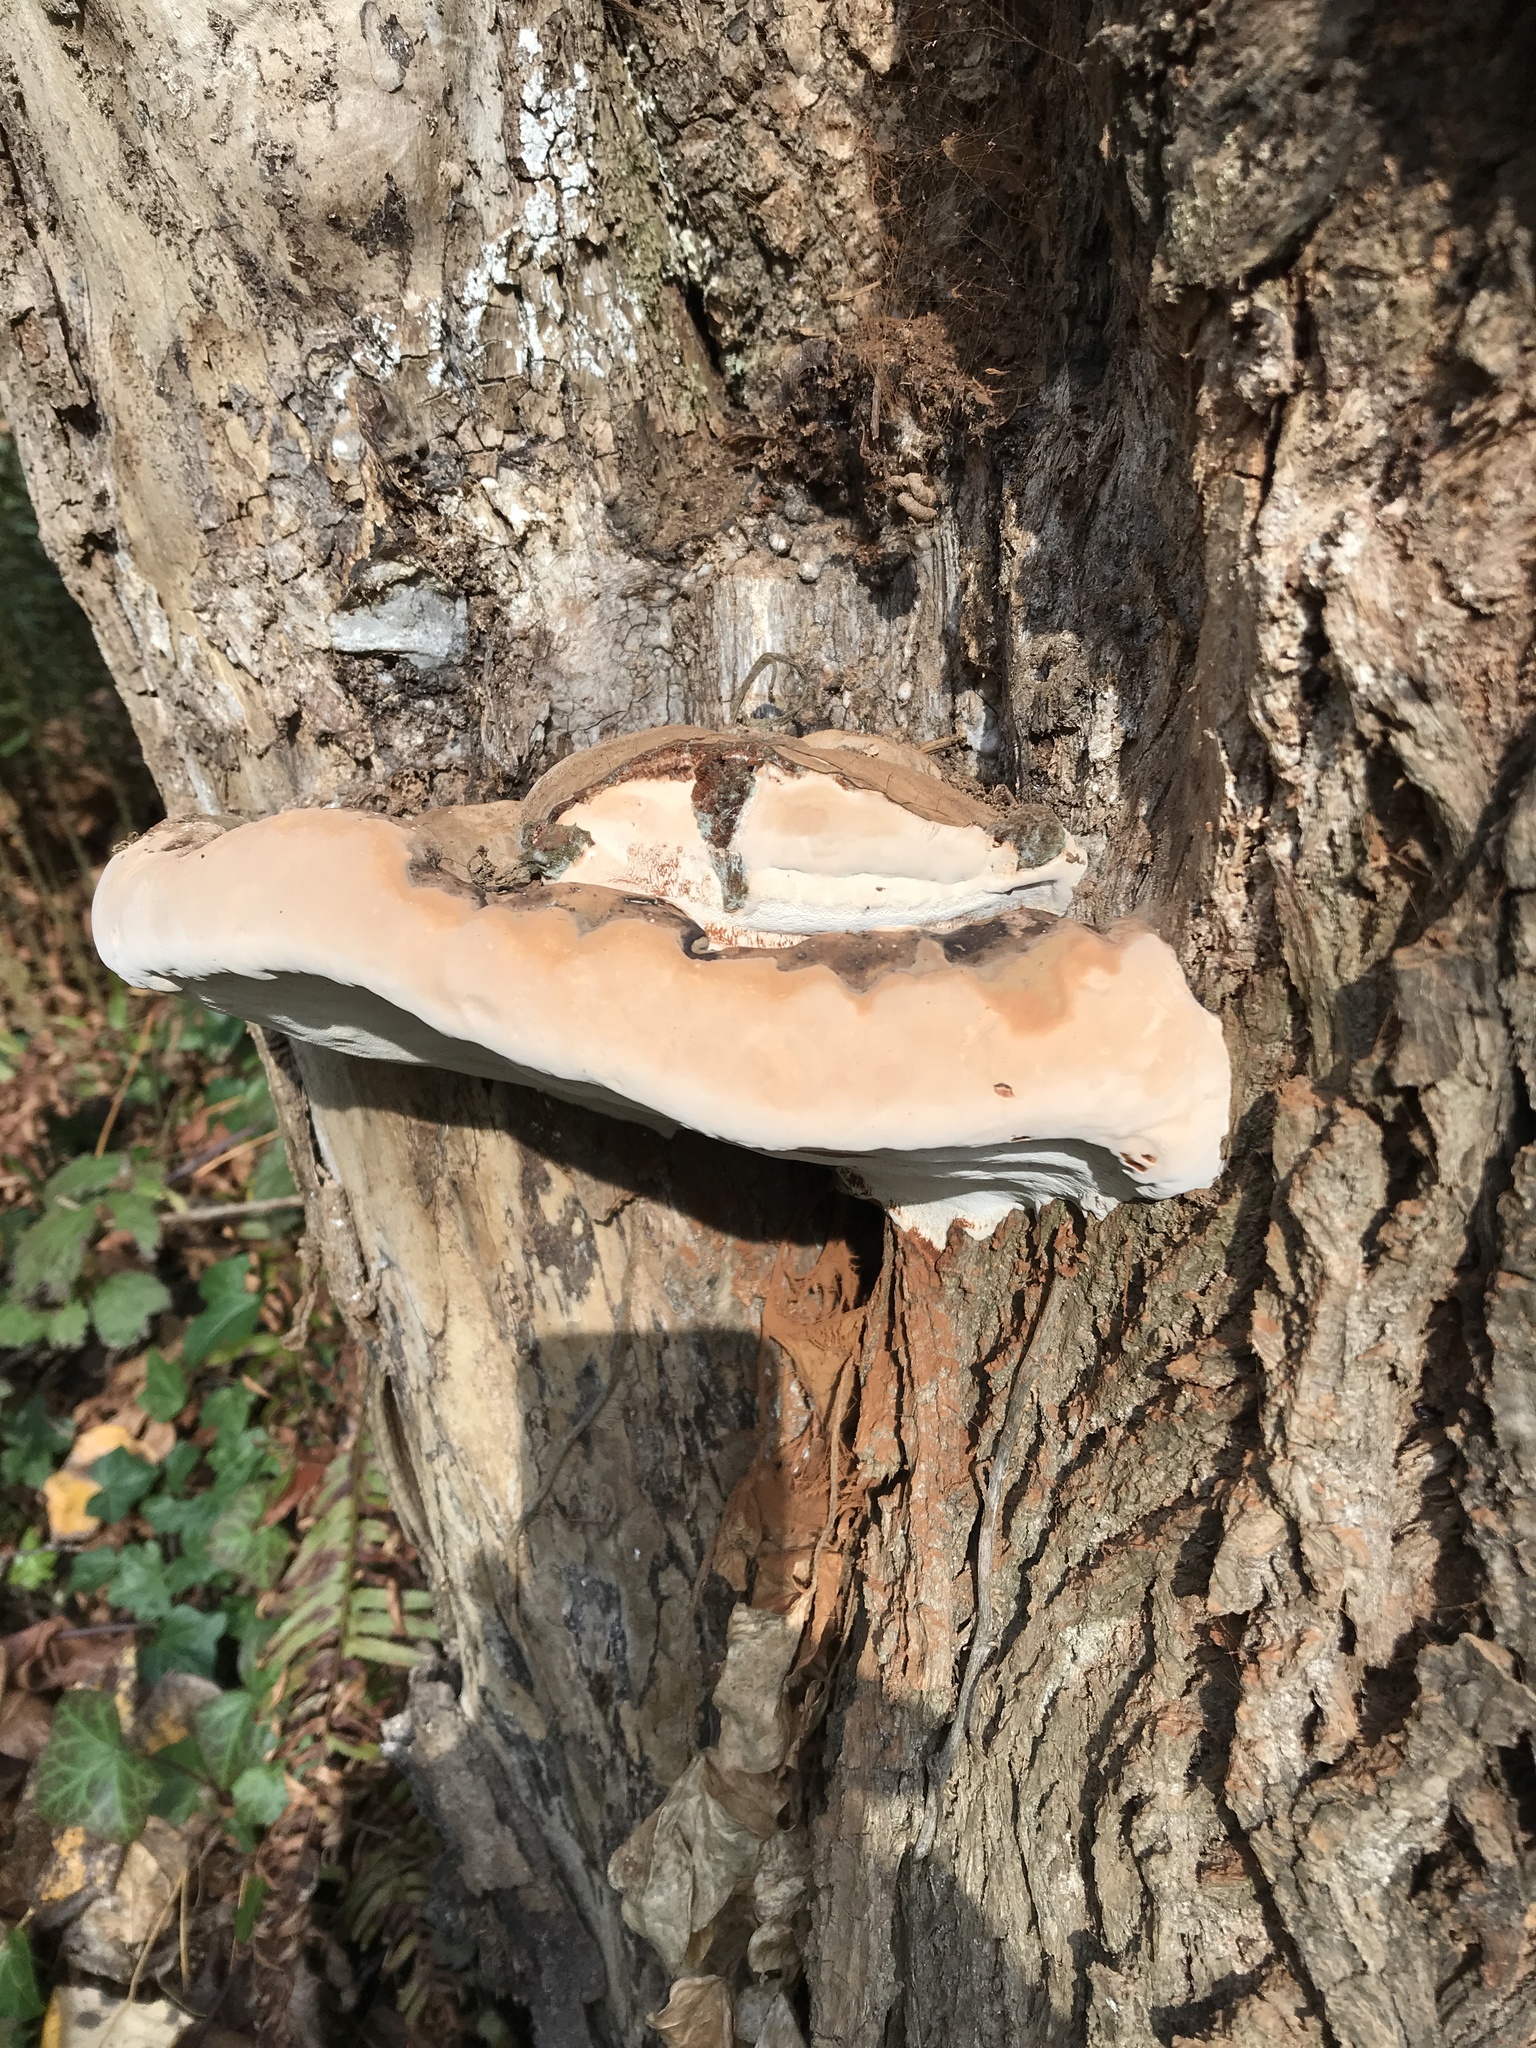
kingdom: Fungi
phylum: Basidiomycota
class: Agaricomycetes
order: Polyporales
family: Polyporaceae
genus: Ganoderma
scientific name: Ganoderma applanatum
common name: Artist's bracket
